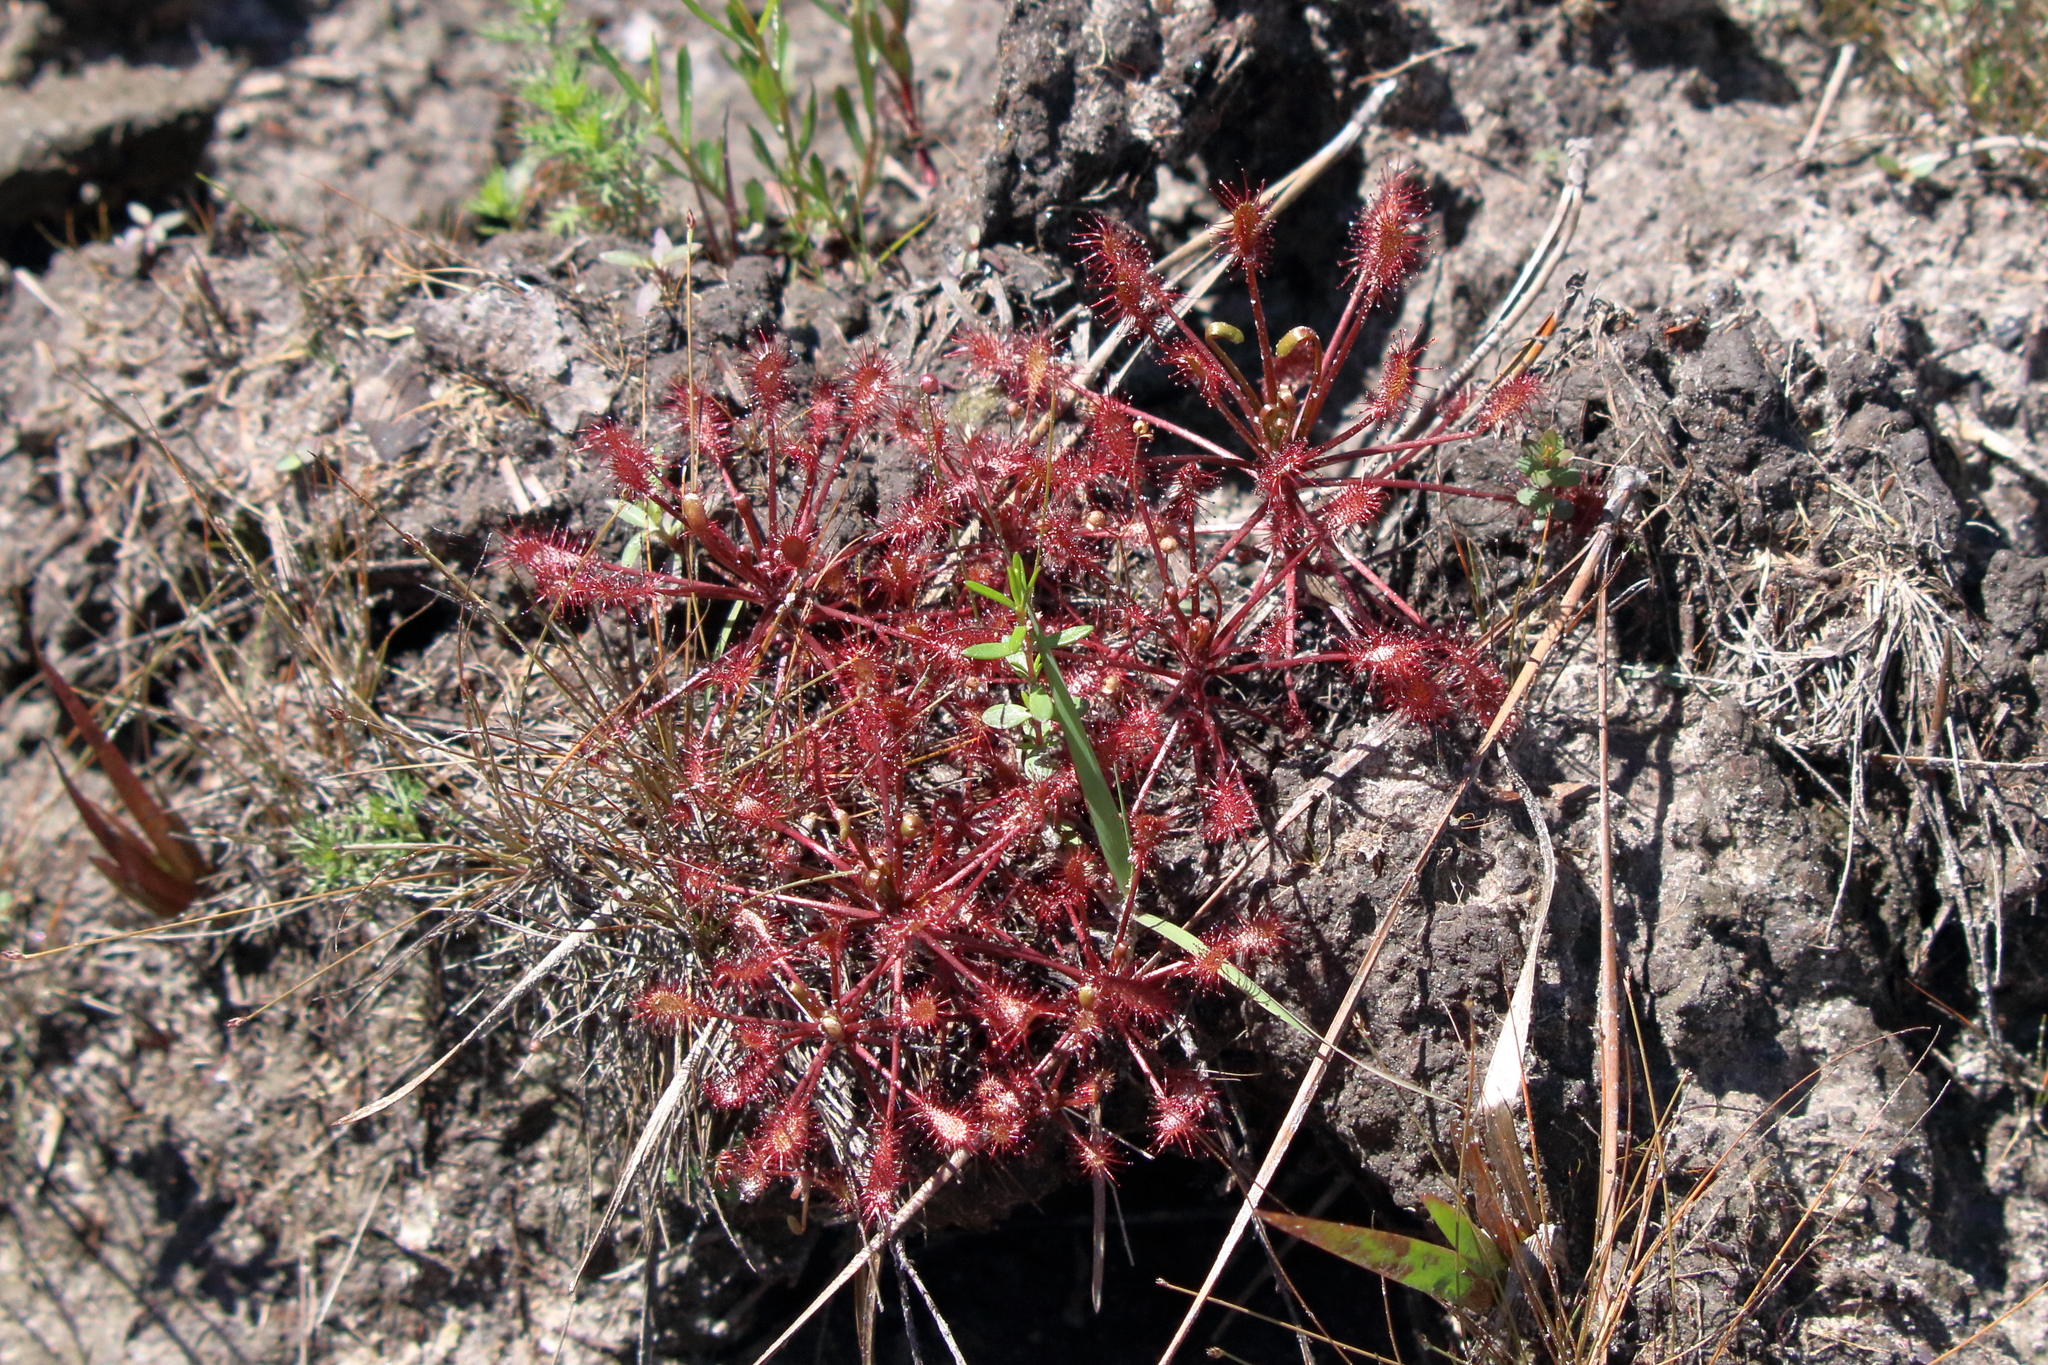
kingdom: Plantae
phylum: Tracheophyta
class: Magnoliopsida
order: Caryophyllales
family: Droseraceae
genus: Drosera
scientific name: Drosera intermedia
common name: Oblong-leaved sundew
